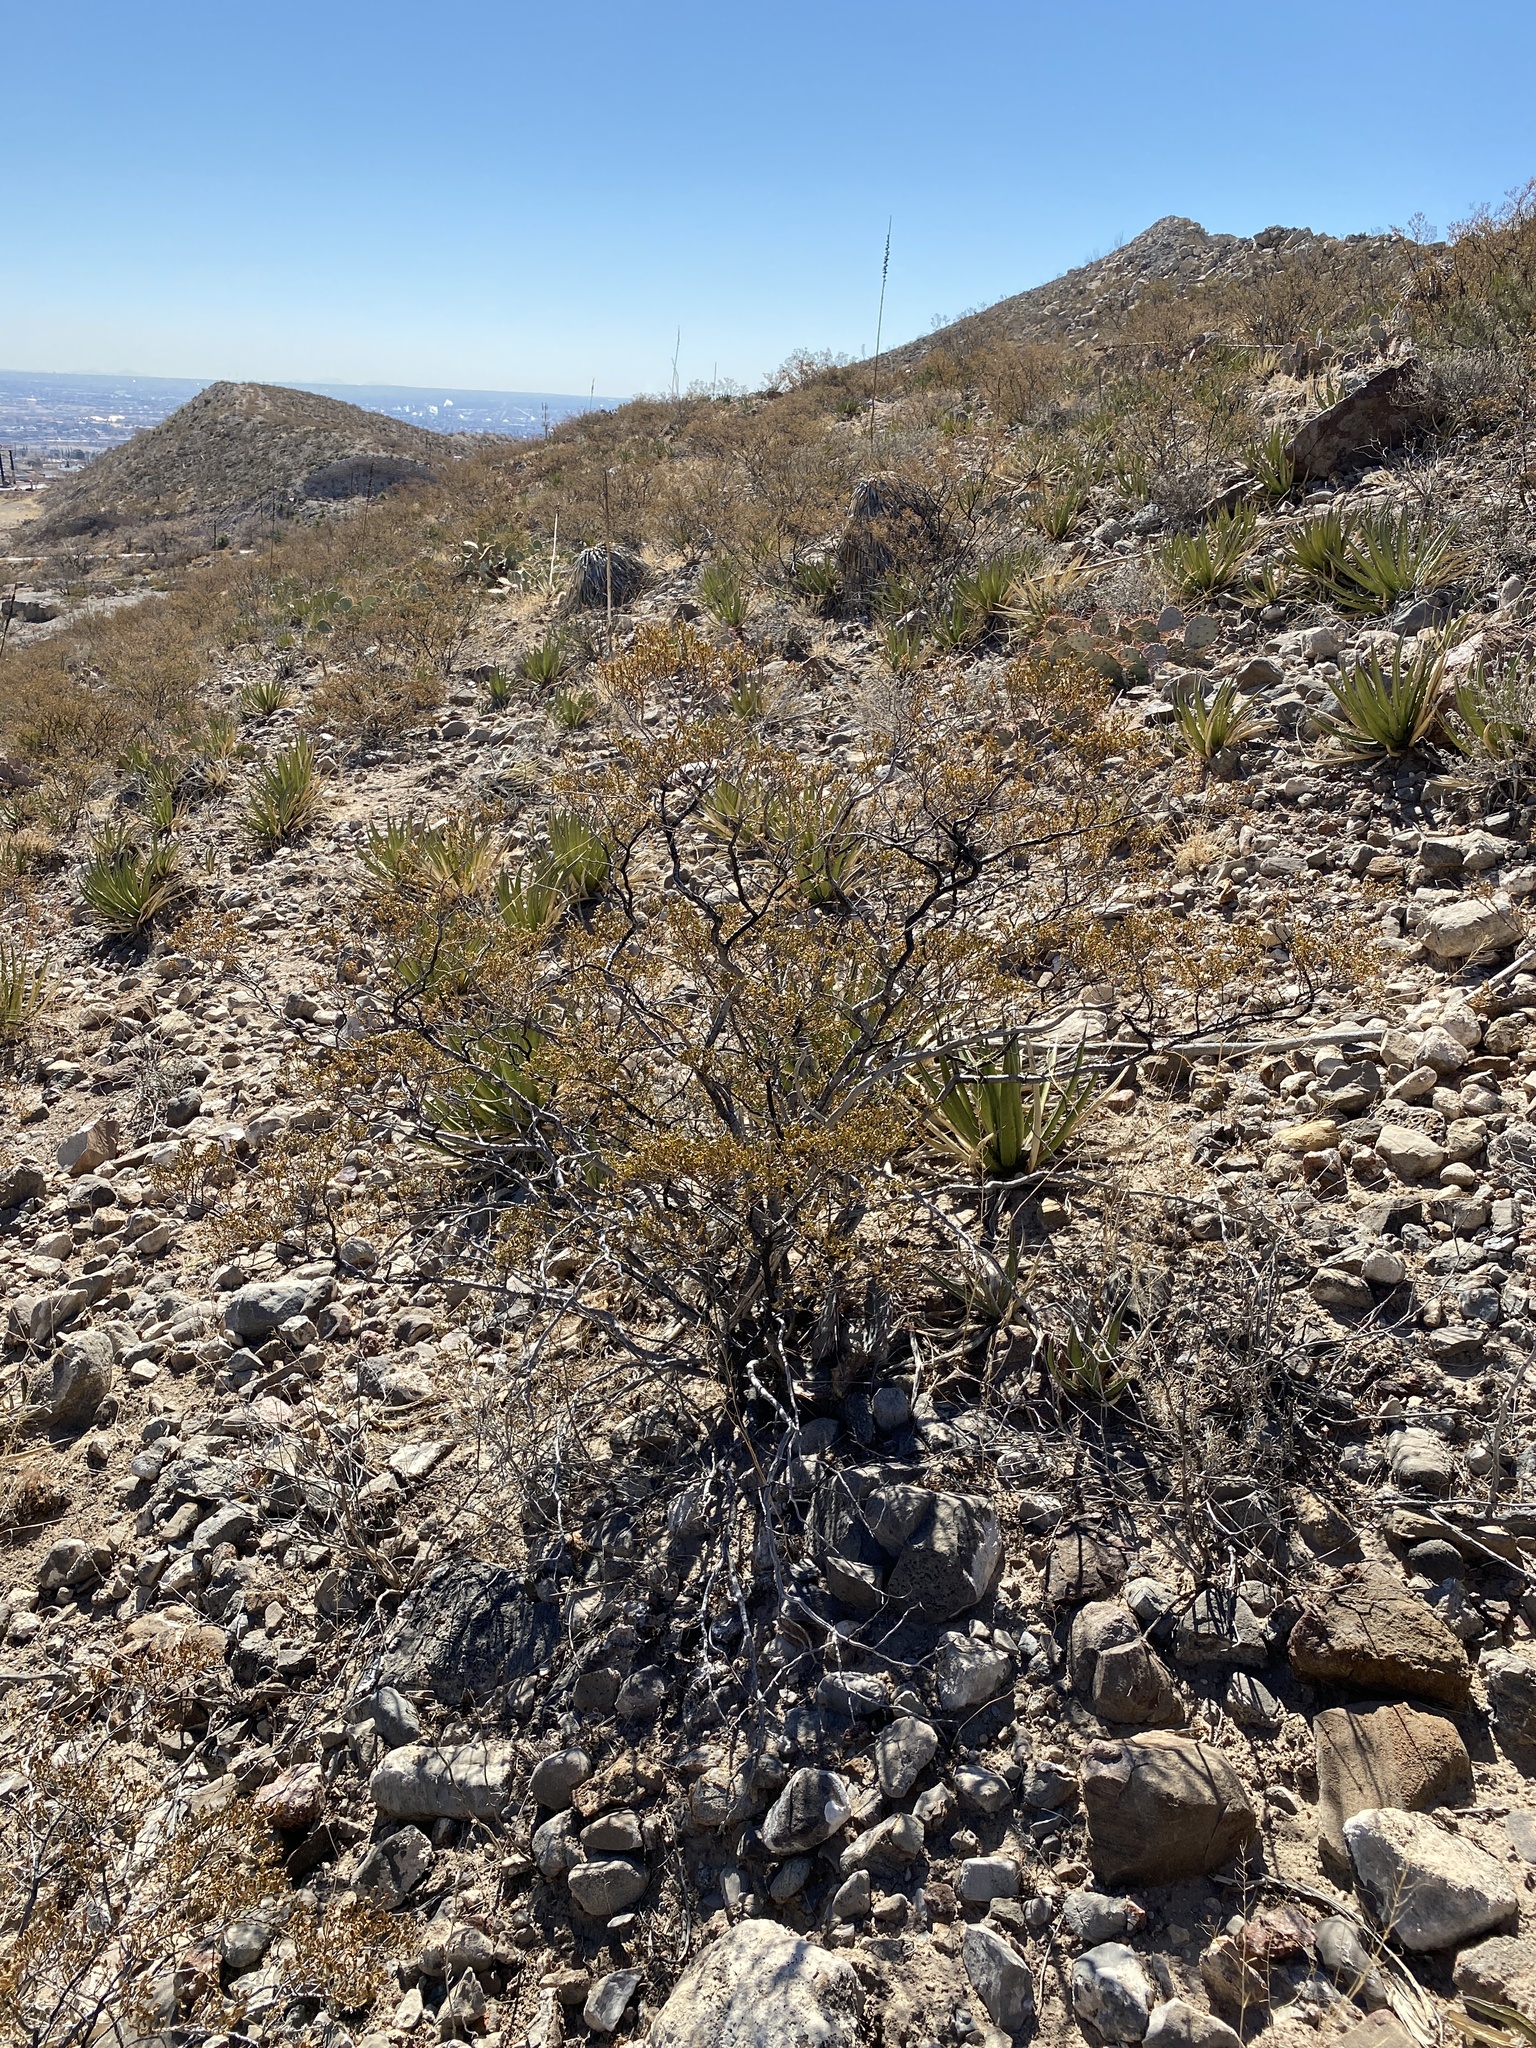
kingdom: Plantae
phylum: Tracheophyta
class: Magnoliopsida
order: Zygophyllales
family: Zygophyllaceae
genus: Larrea
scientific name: Larrea tridentata
